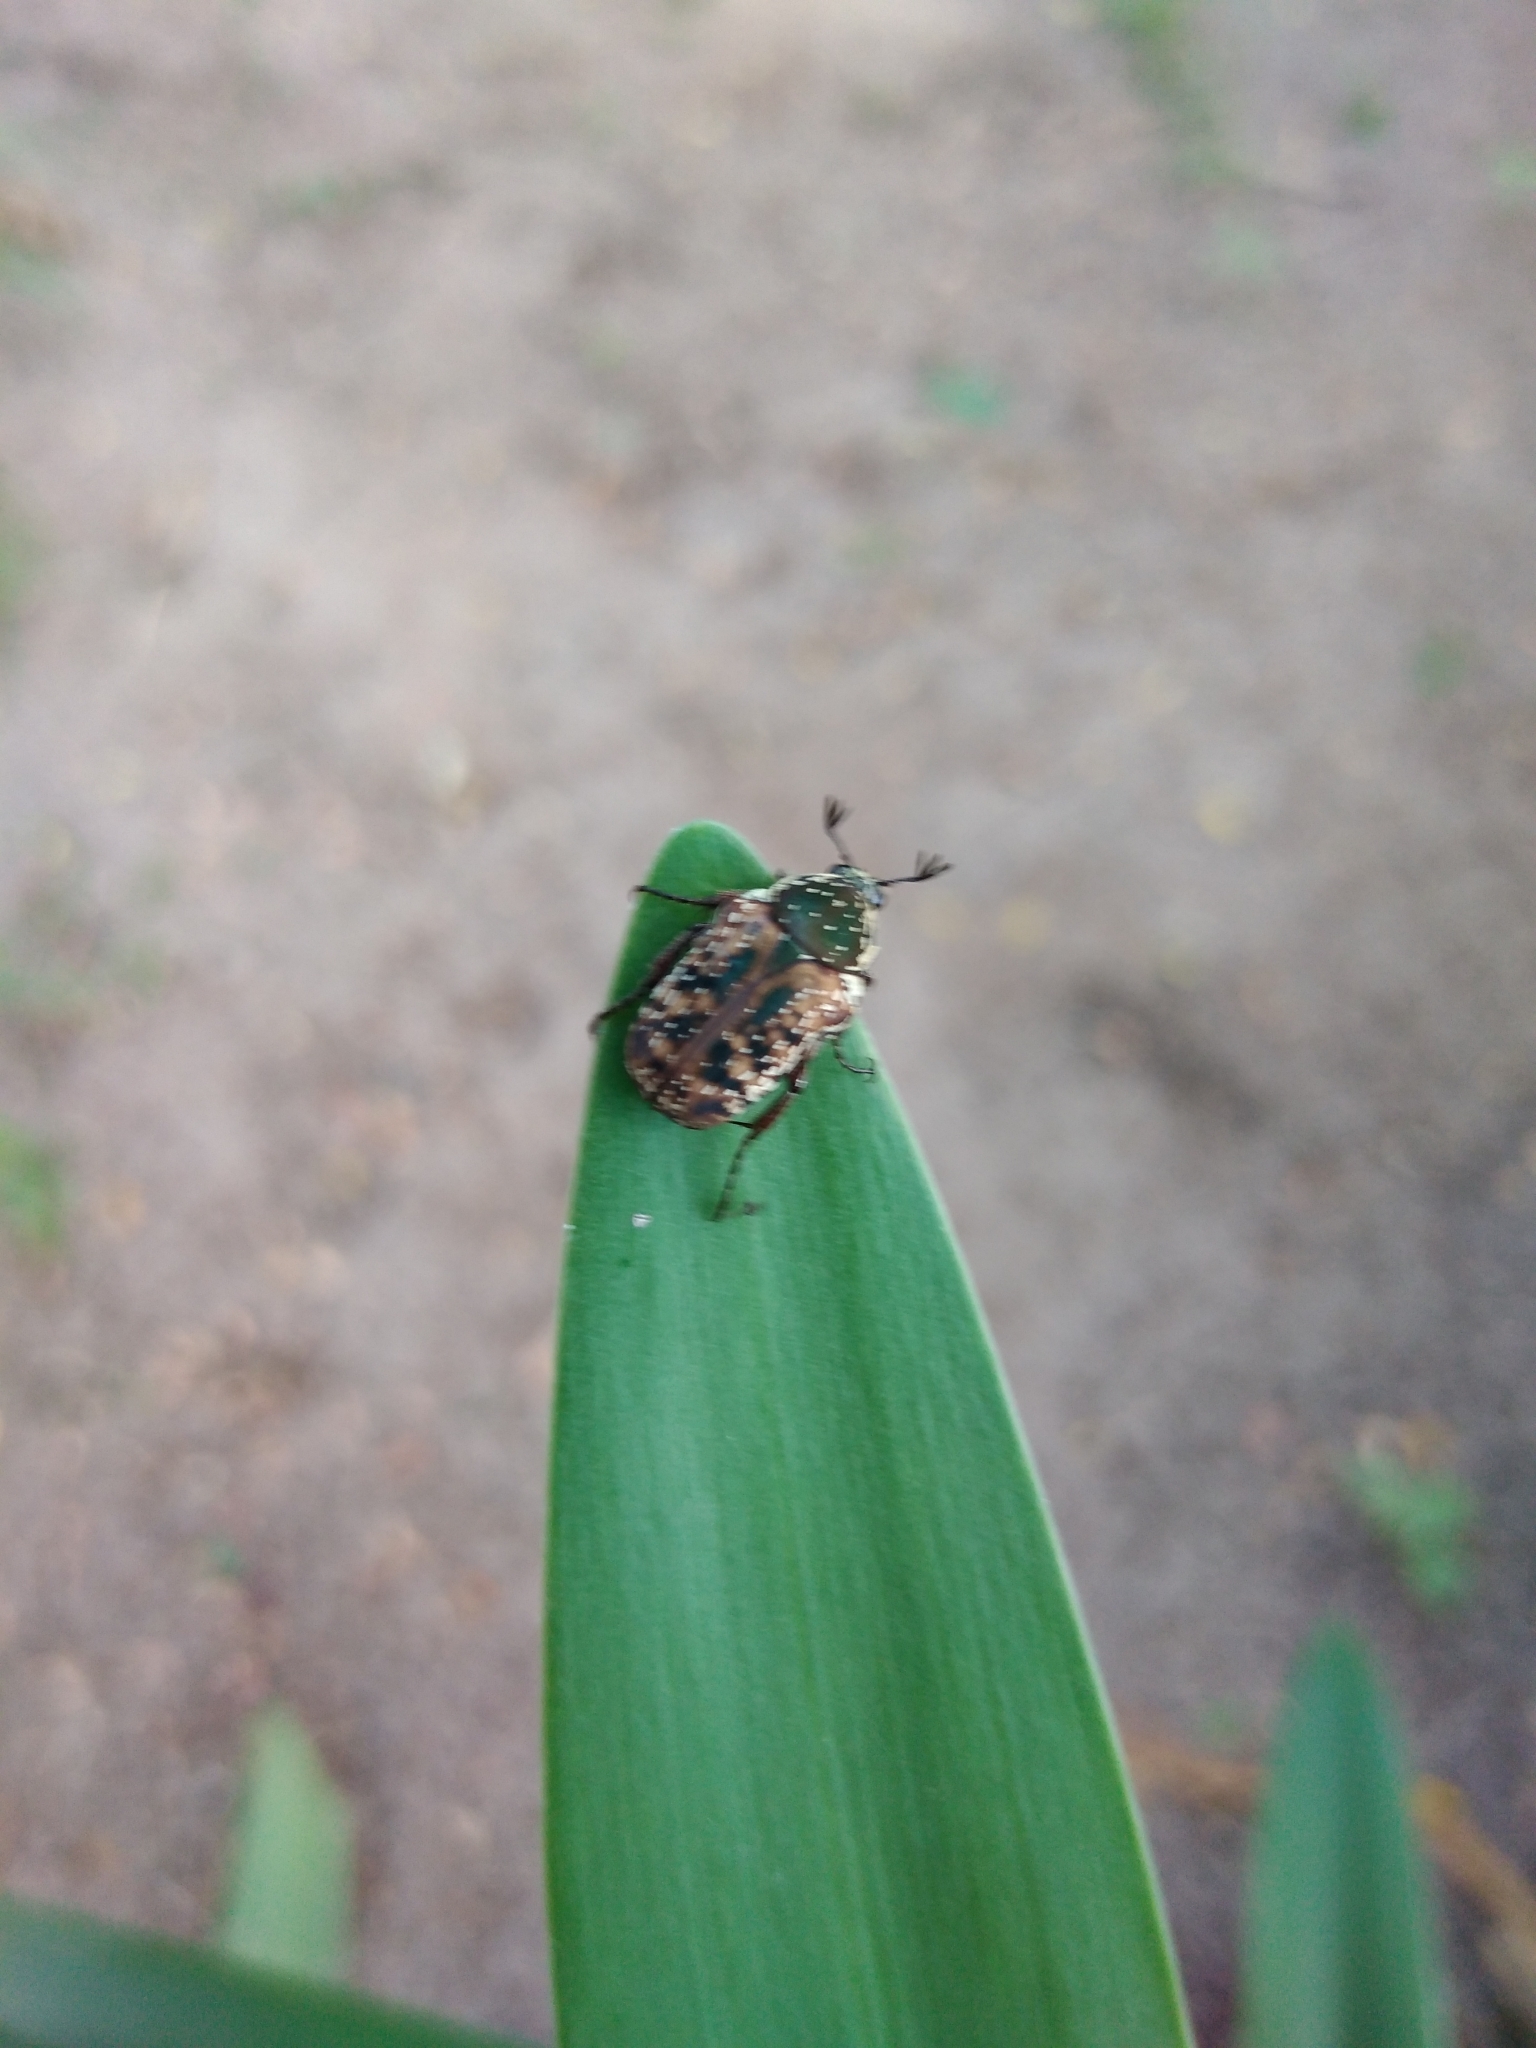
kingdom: Animalia
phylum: Arthropoda
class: Insecta
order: Coleoptera
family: Scarabaeidae
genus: Elaphinis
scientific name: Elaphinis delagoensis
